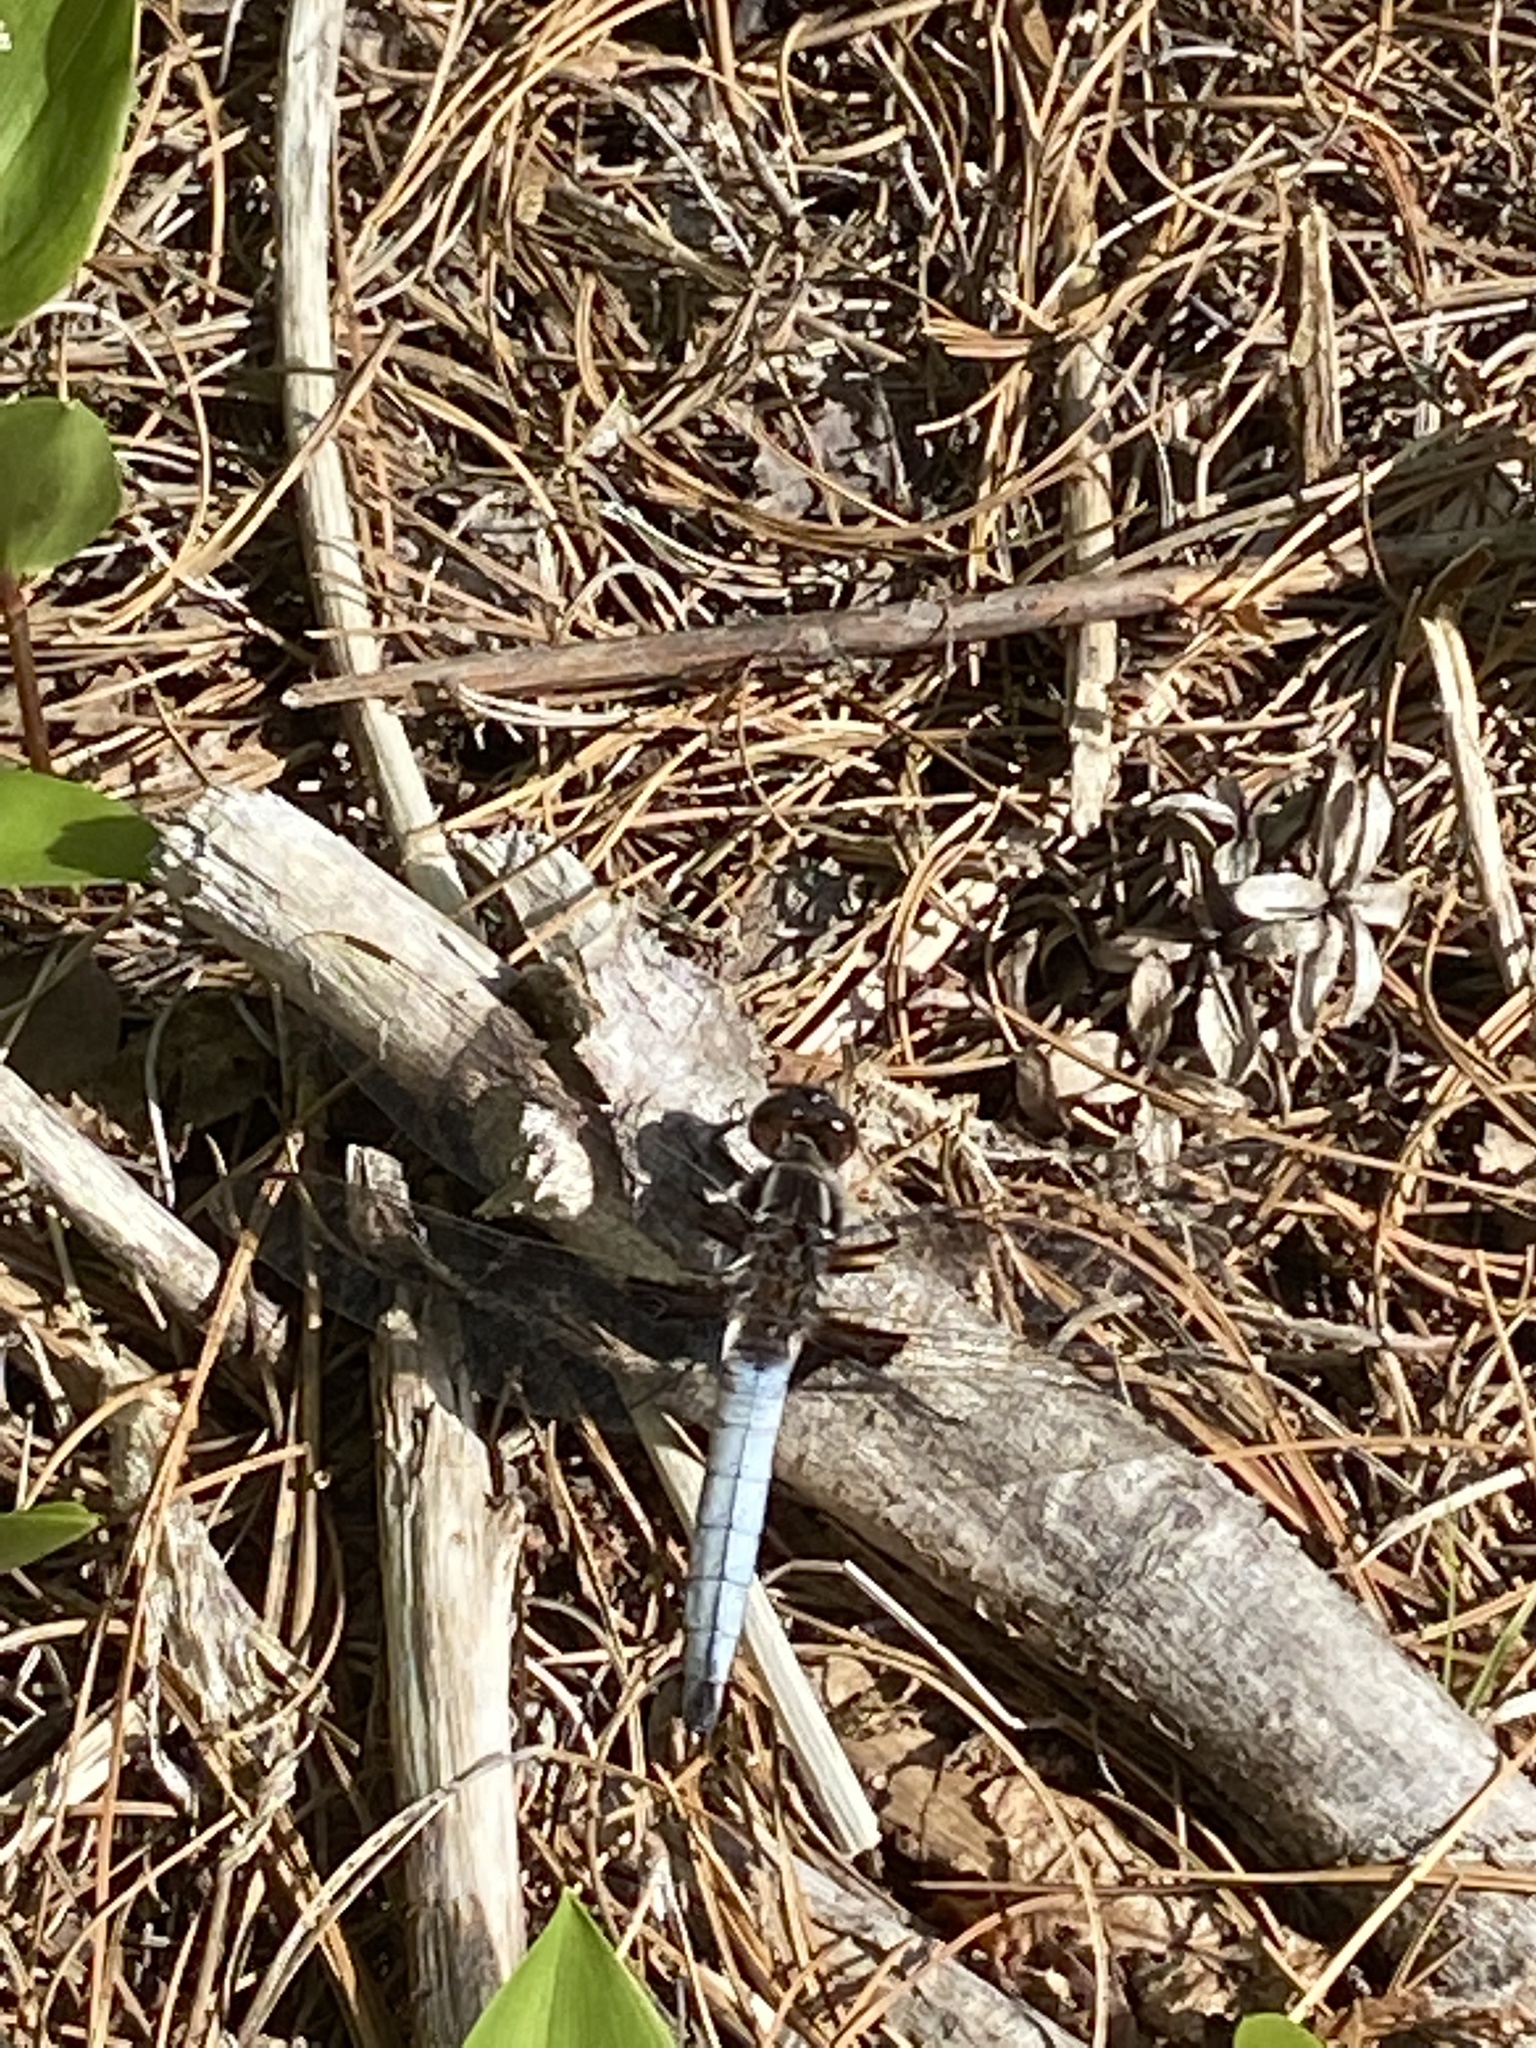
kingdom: Animalia
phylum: Arthropoda
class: Insecta
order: Odonata
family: Libellulidae
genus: Ladona
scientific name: Ladona exusta
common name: Libellule embrasée
